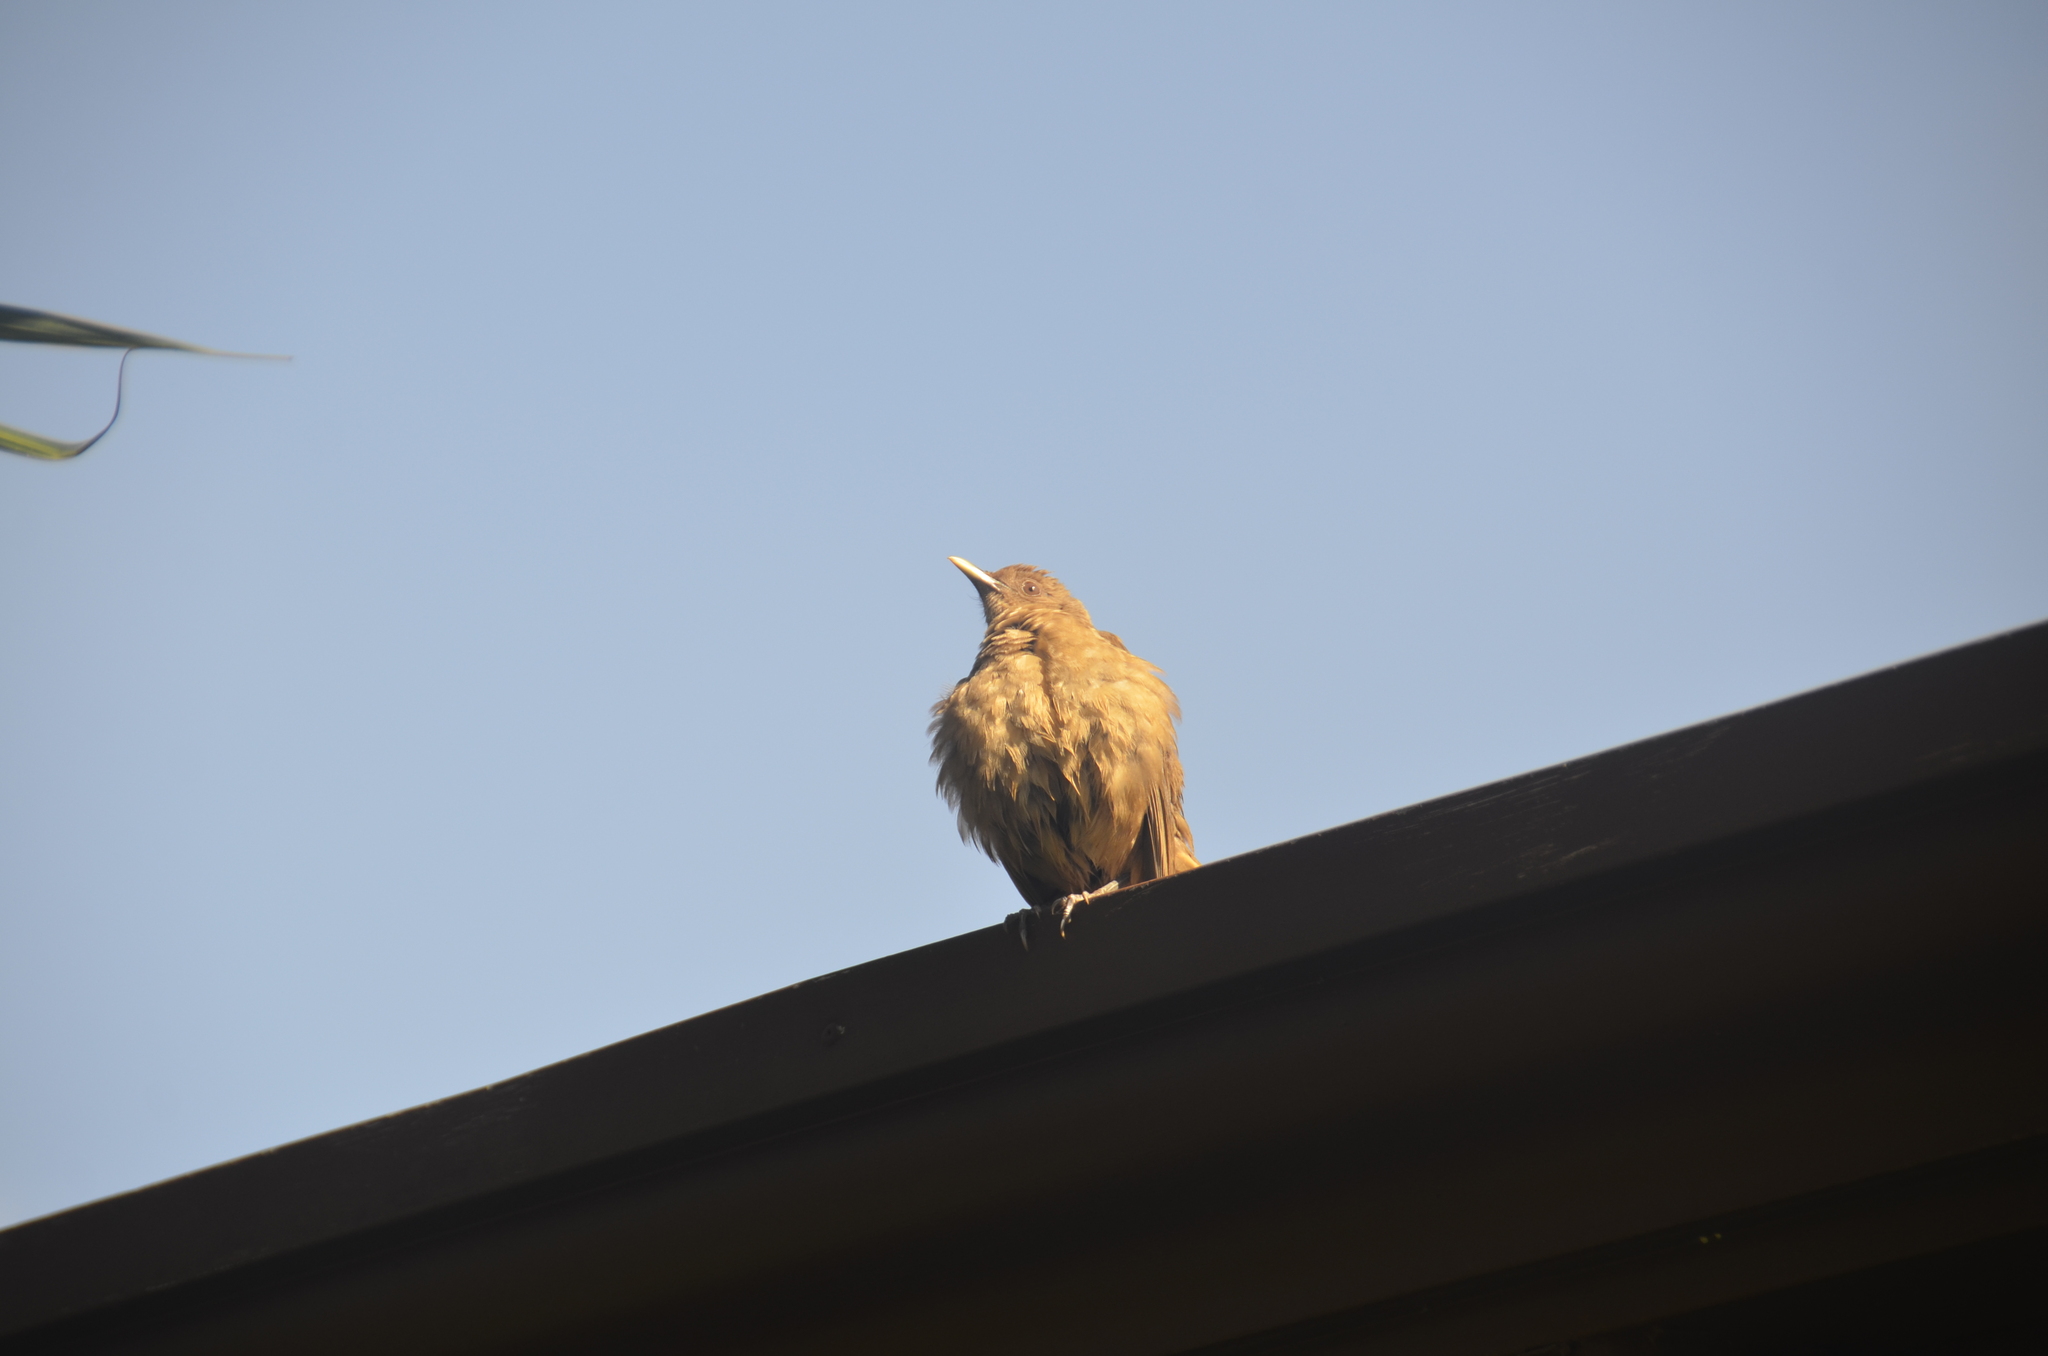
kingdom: Animalia
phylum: Chordata
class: Aves
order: Passeriformes
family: Turdidae
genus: Turdus
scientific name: Turdus grayi
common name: Clay-colored thrush
